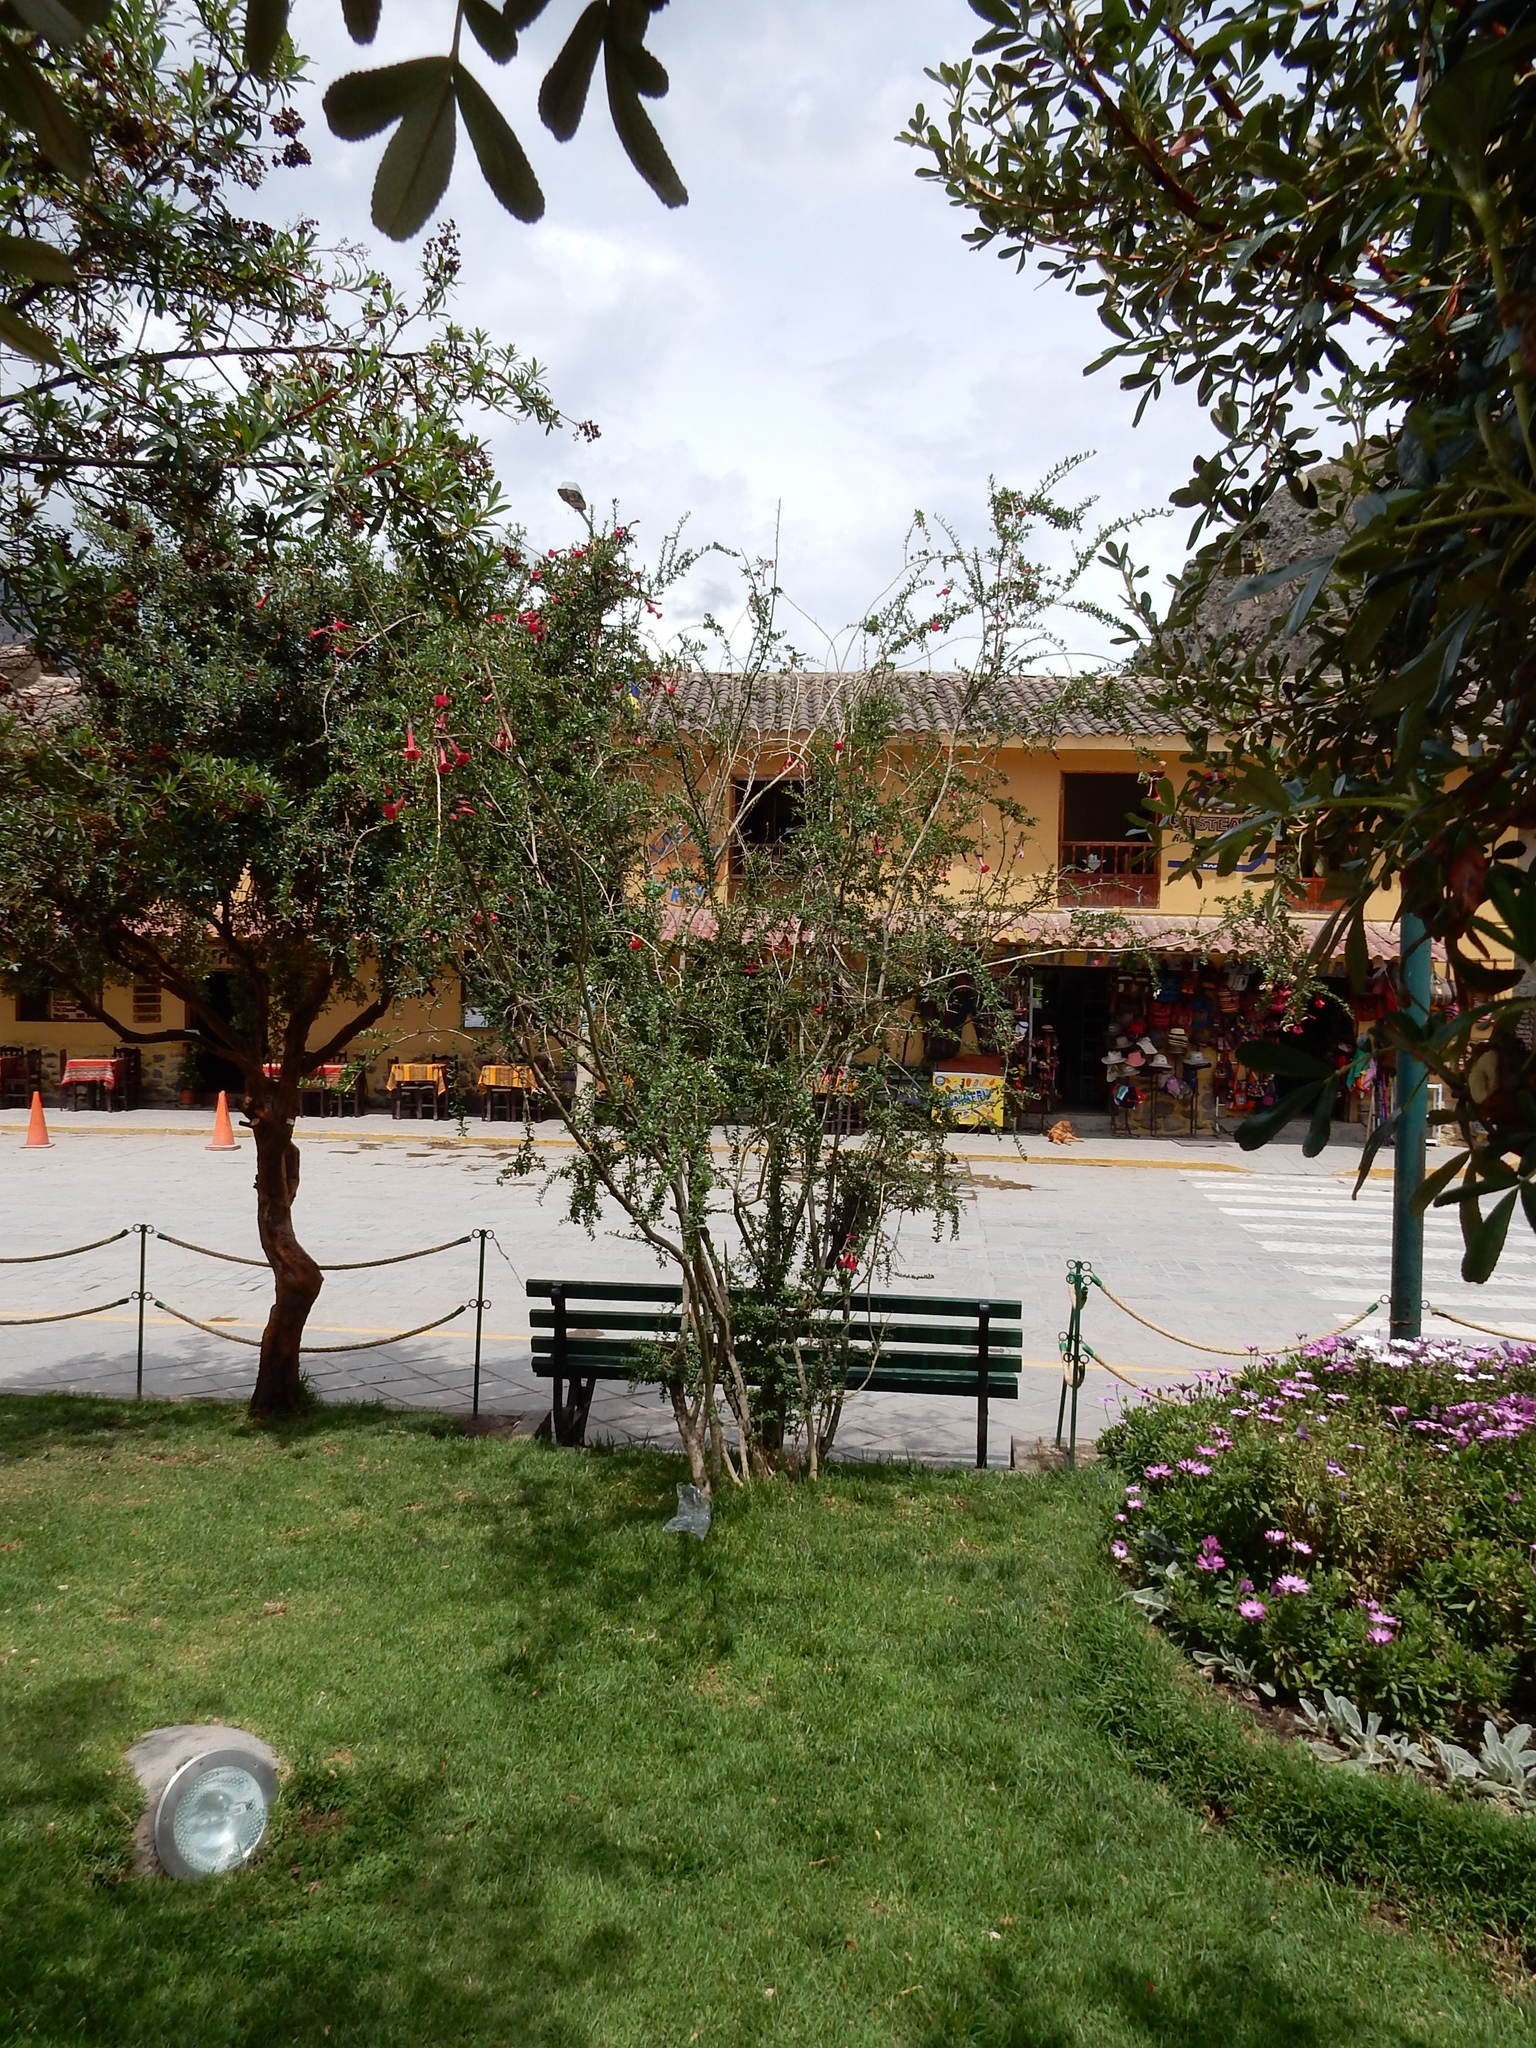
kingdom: Plantae
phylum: Tracheophyta
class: Magnoliopsida
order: Ericales
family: Polemoniaceae
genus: Cantua
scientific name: Cantua buxifolia
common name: Sacred-flower-of-the-incas
